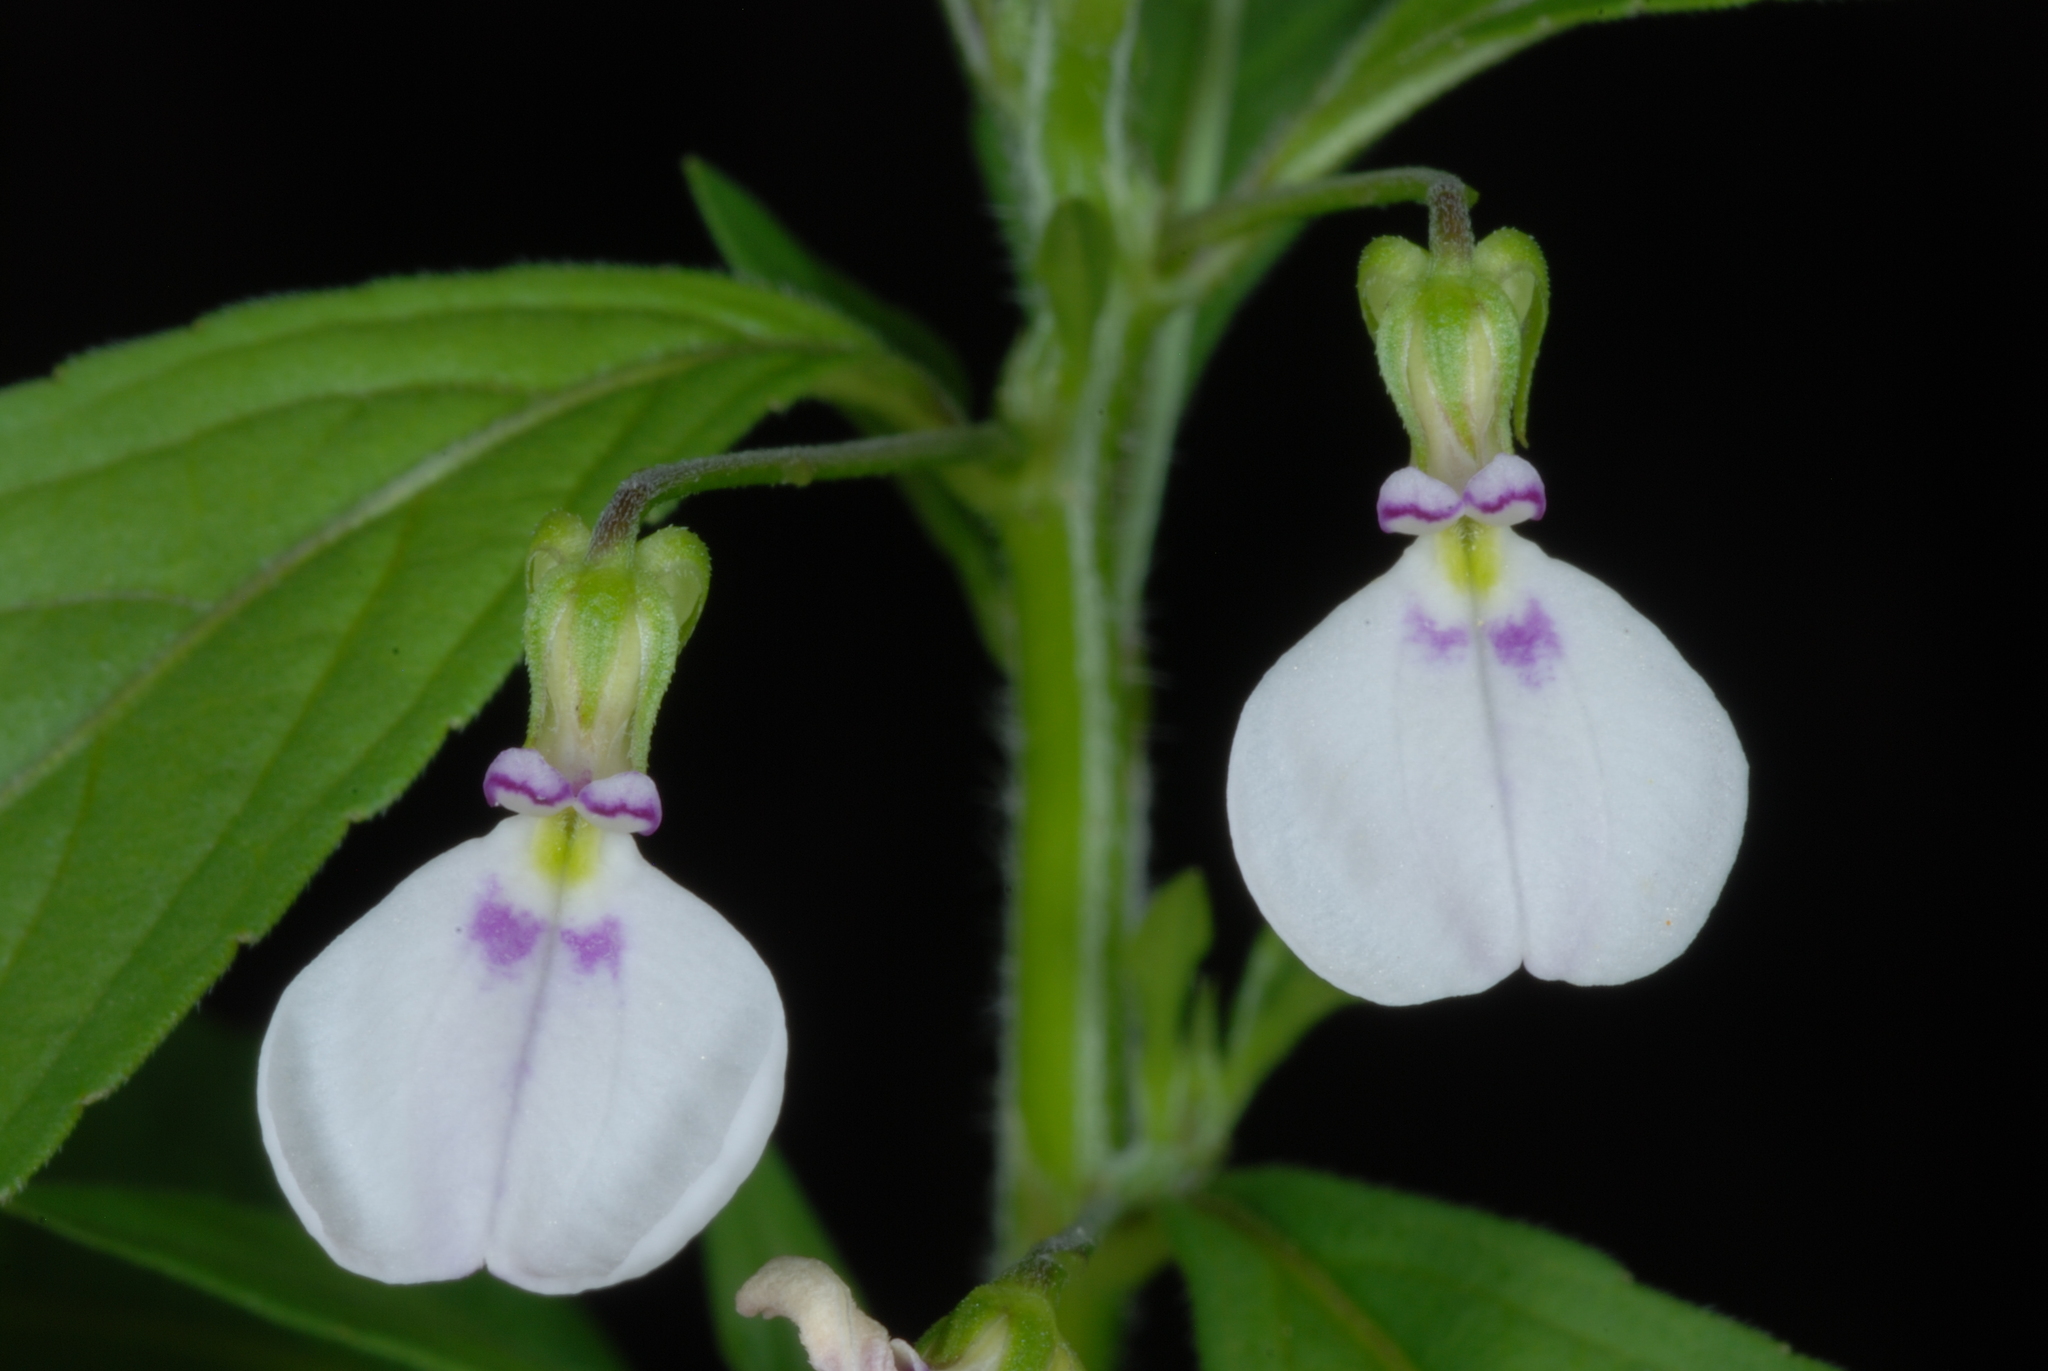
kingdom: Plantae
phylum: Tracheophyta
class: Magnoliopsida
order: Malpighiales
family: Violaceae
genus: Pombalia
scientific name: Pombalia linearifolia
